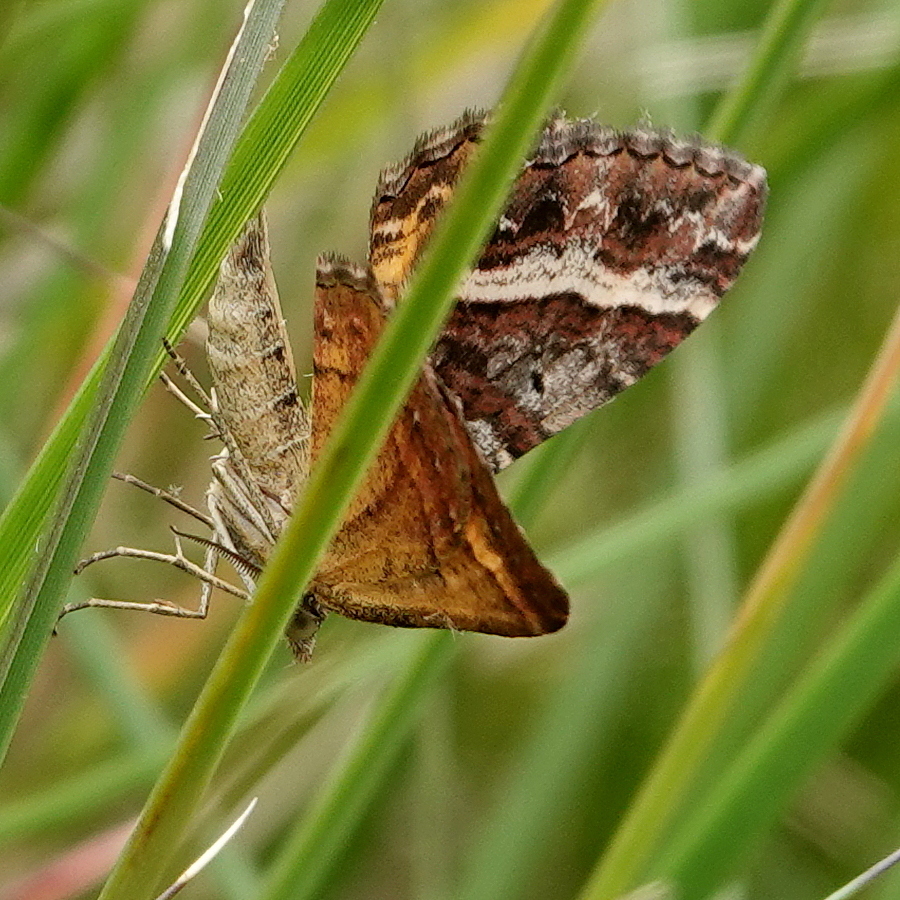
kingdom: Animalia
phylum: Arthropoda
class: Insecta
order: Lepidoptera
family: Geometridae
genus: Chrysolarentia
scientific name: Chrysolarentia vicissata
